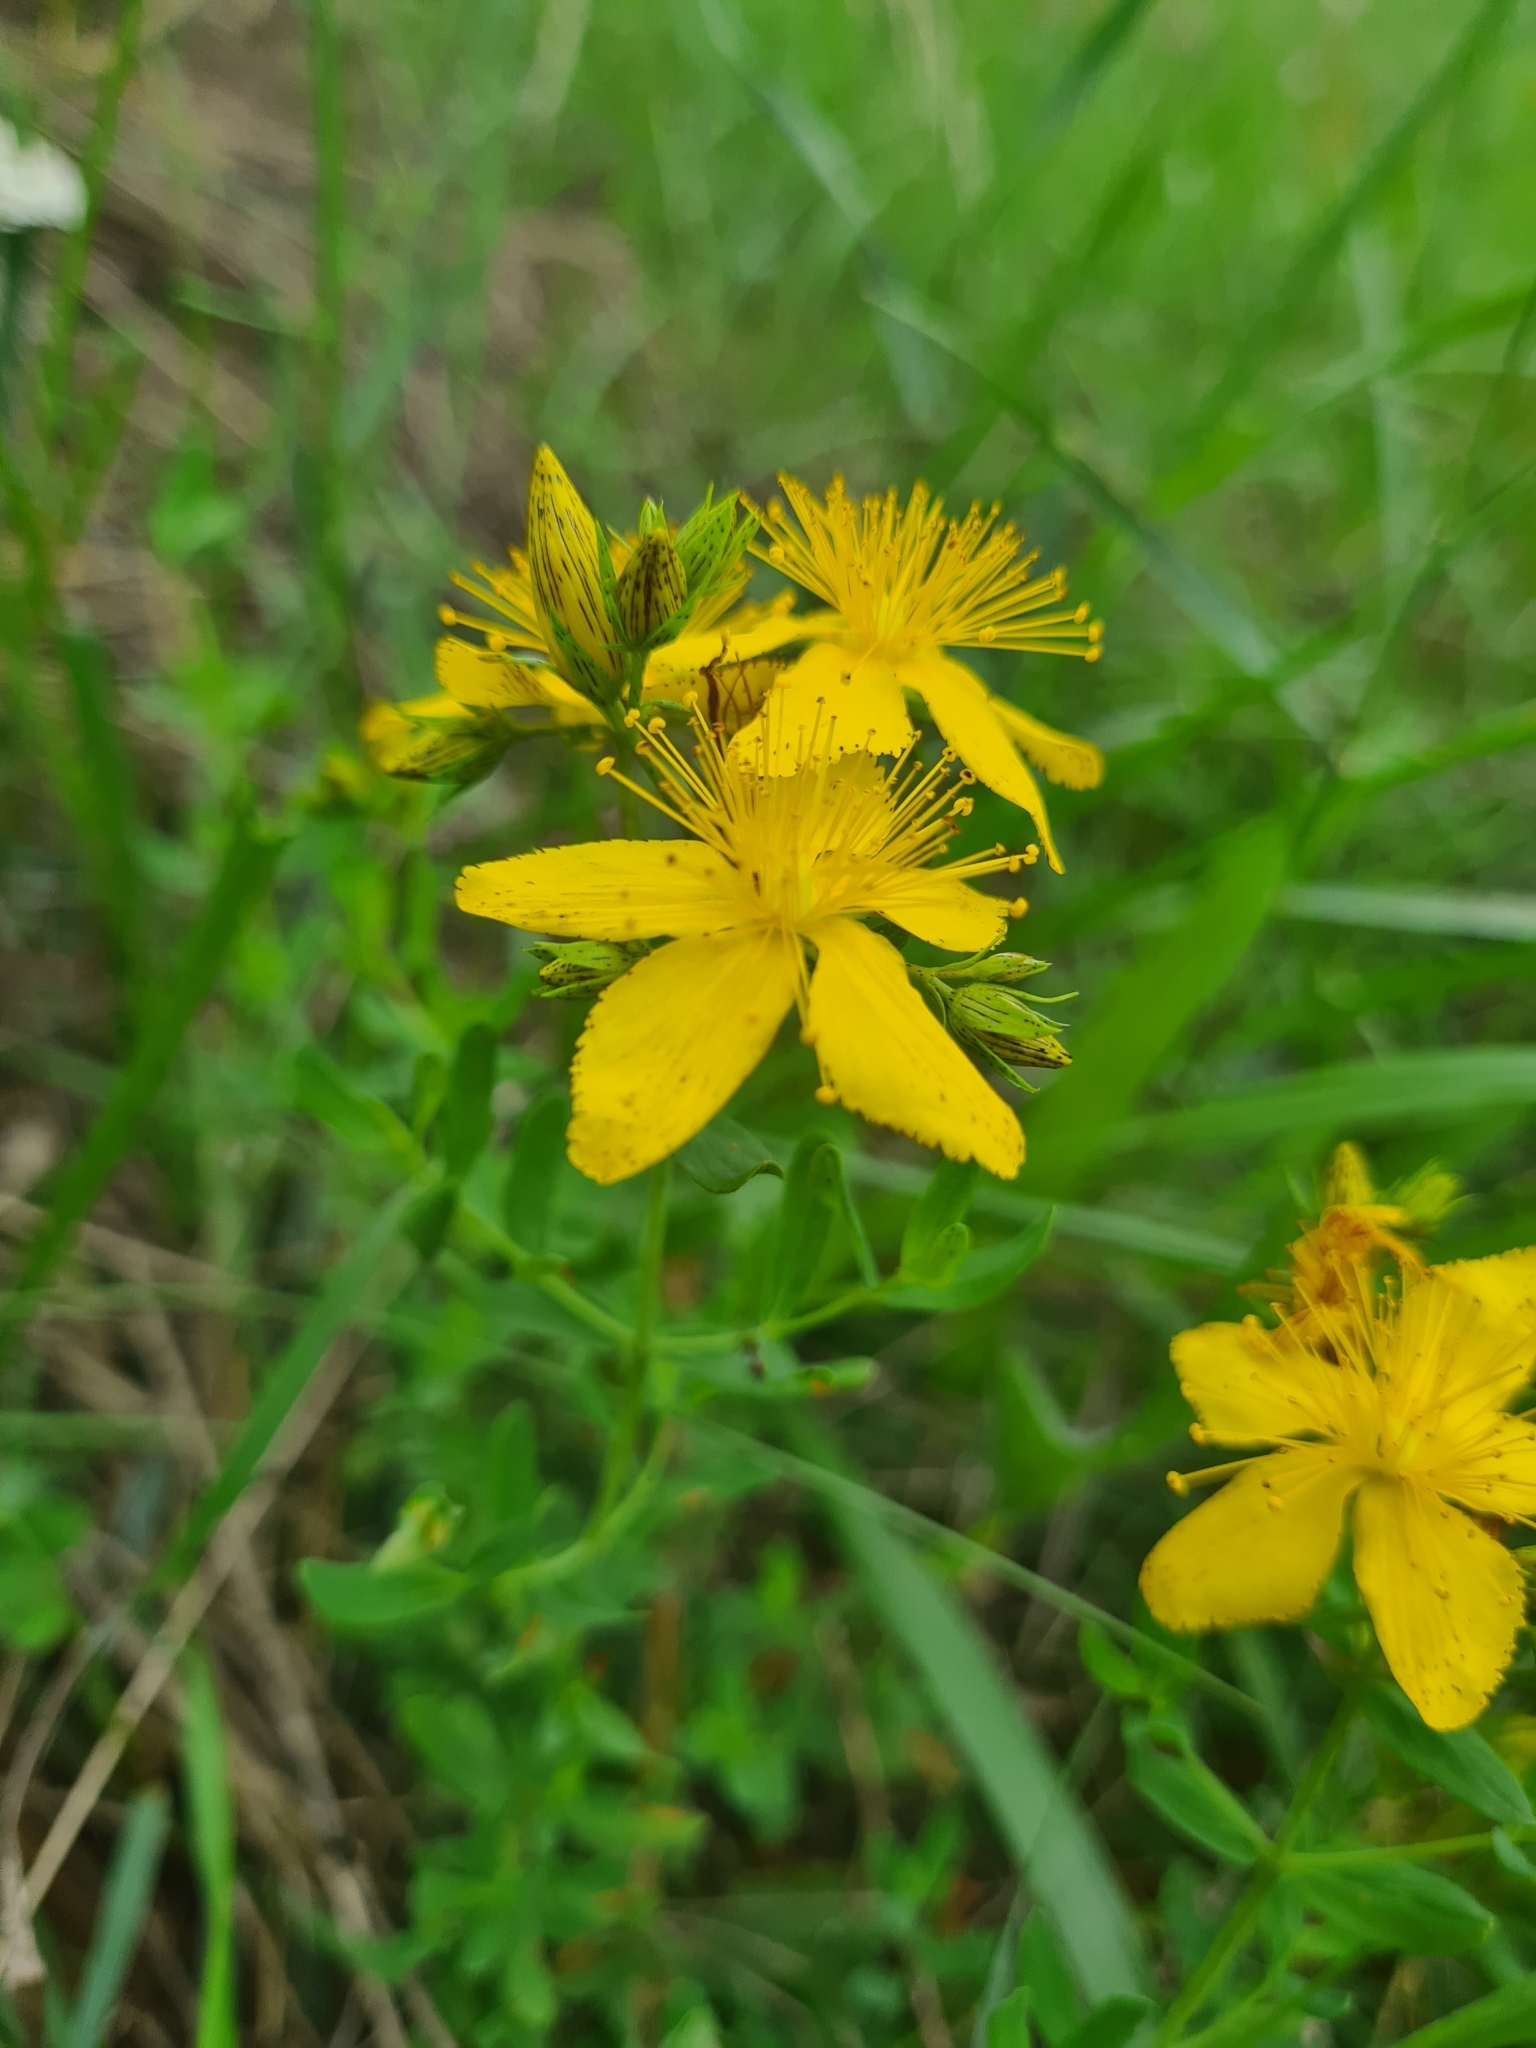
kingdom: Plantae
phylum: Tracheophyta
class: Magnoliopsida
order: Malpighiales
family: Hypericaceae
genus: Hypericum
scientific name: Hypericum desetangsii
